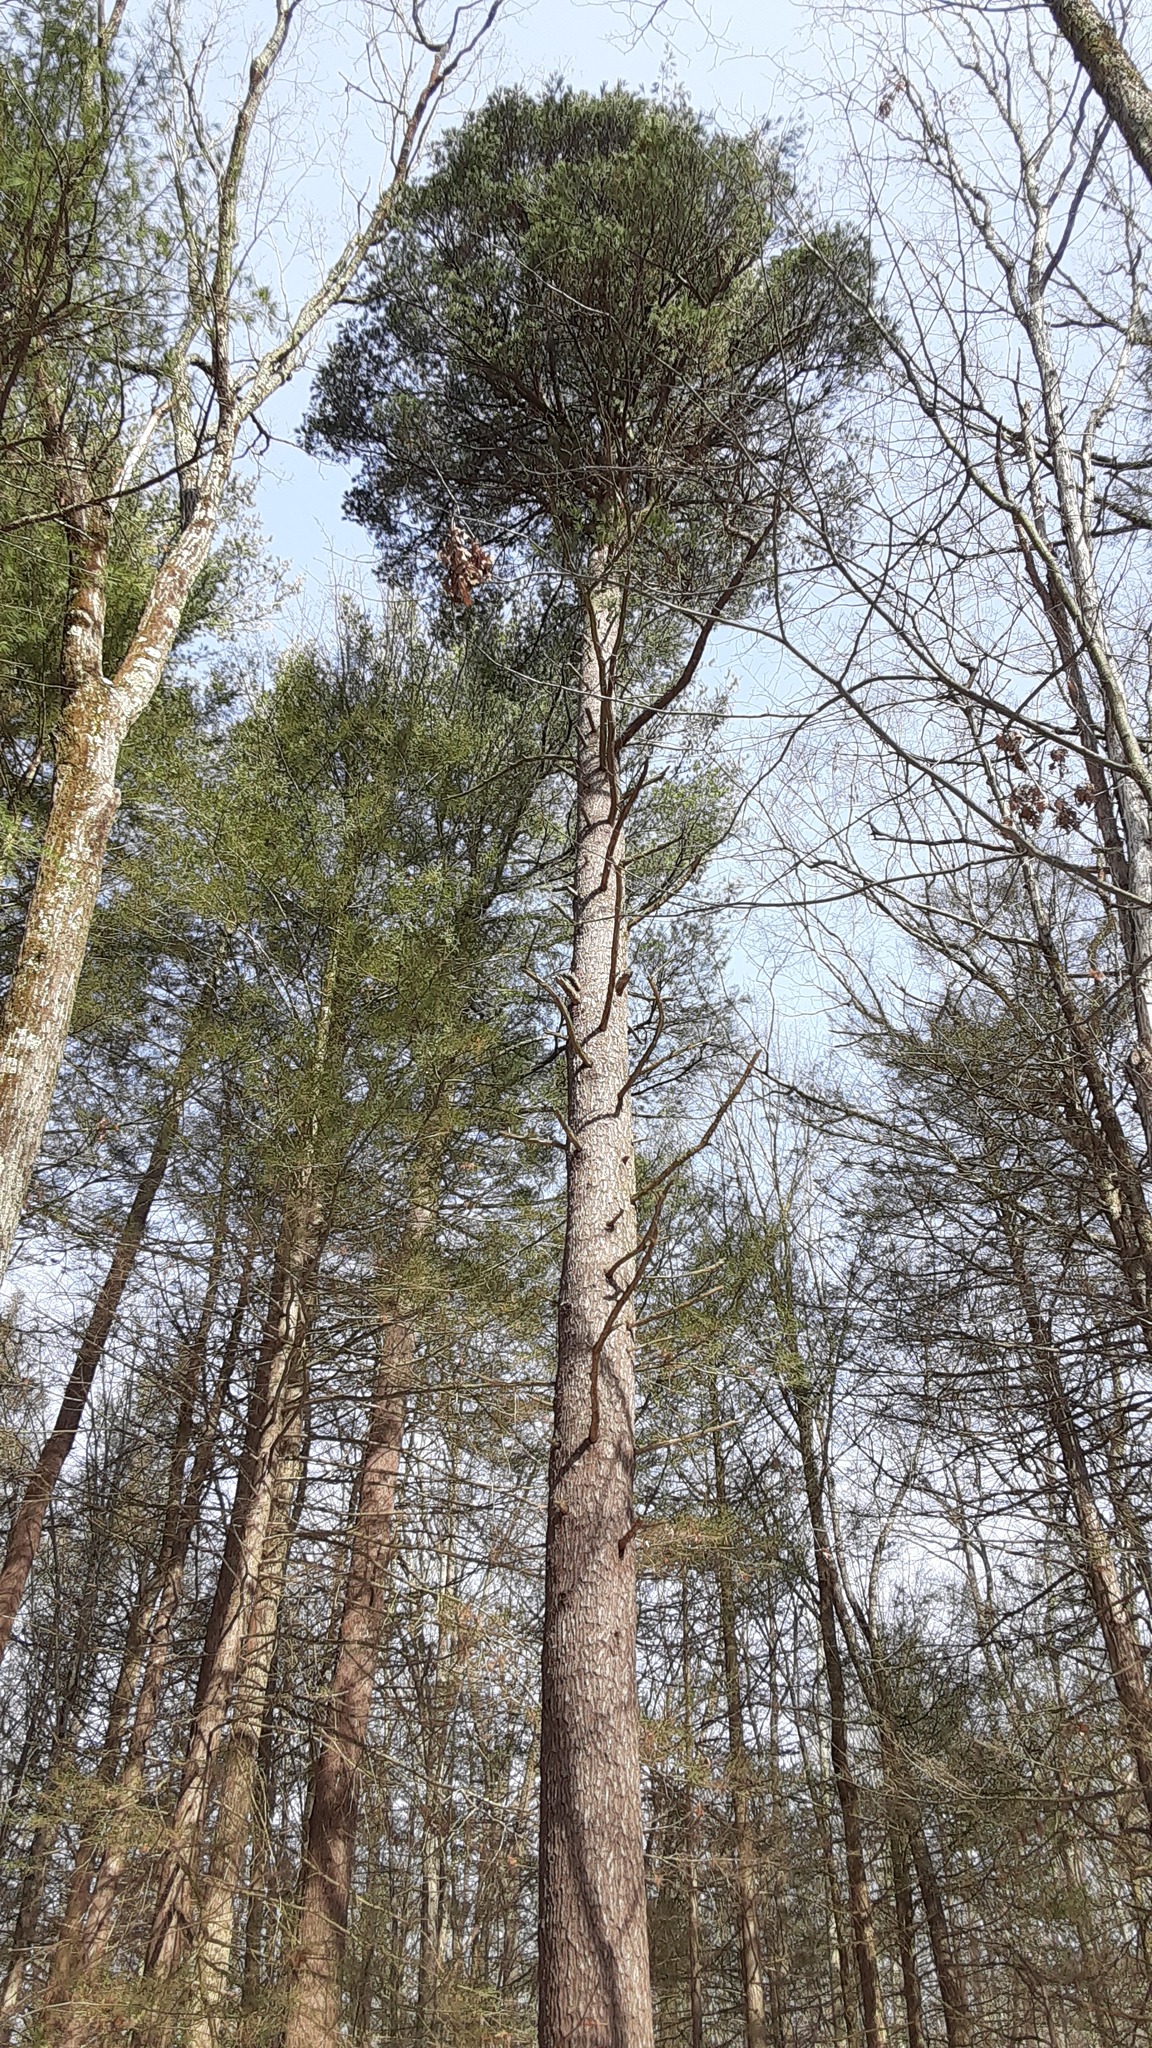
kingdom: Plantae
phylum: Tracheophyta
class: Pinopsida
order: Pinales
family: Pinaceae
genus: Pinus
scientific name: Pinus strobus
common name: Weymouth pine
